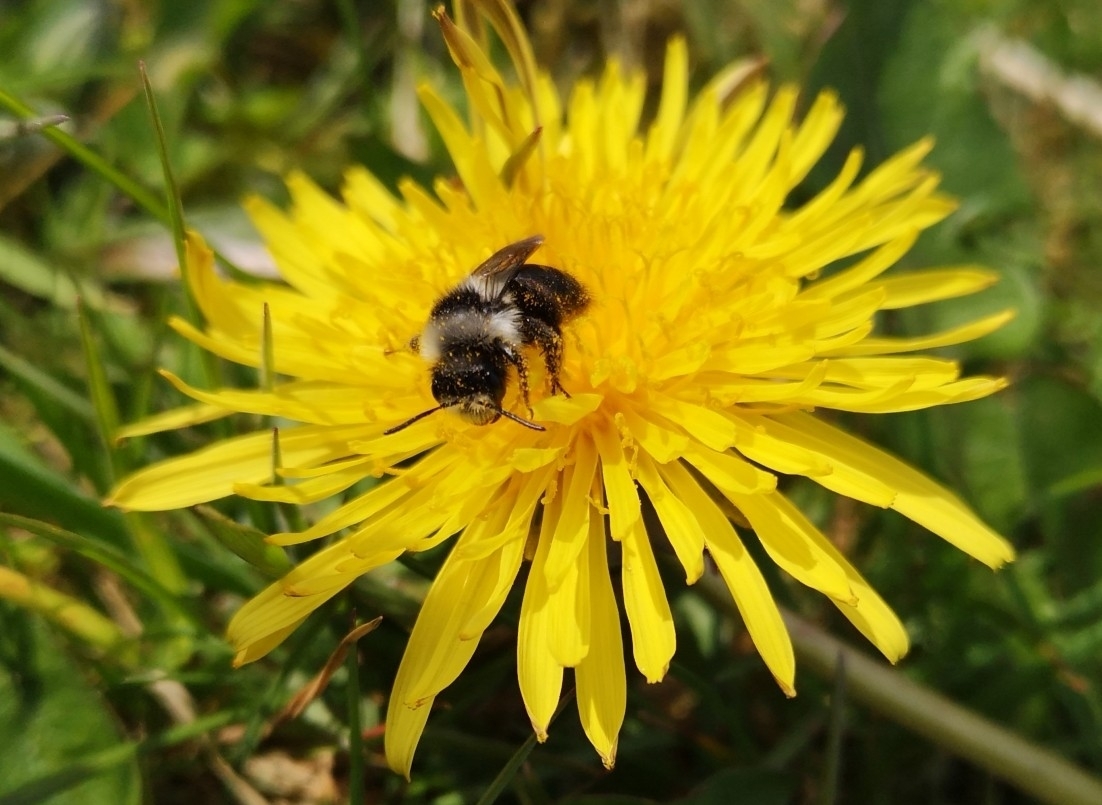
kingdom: Animalia
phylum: Arthropoda
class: Insecta
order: Hymenoptera
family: Andrenidae
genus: Andrena
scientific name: Andrena cineraria
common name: Ashy mining bee
